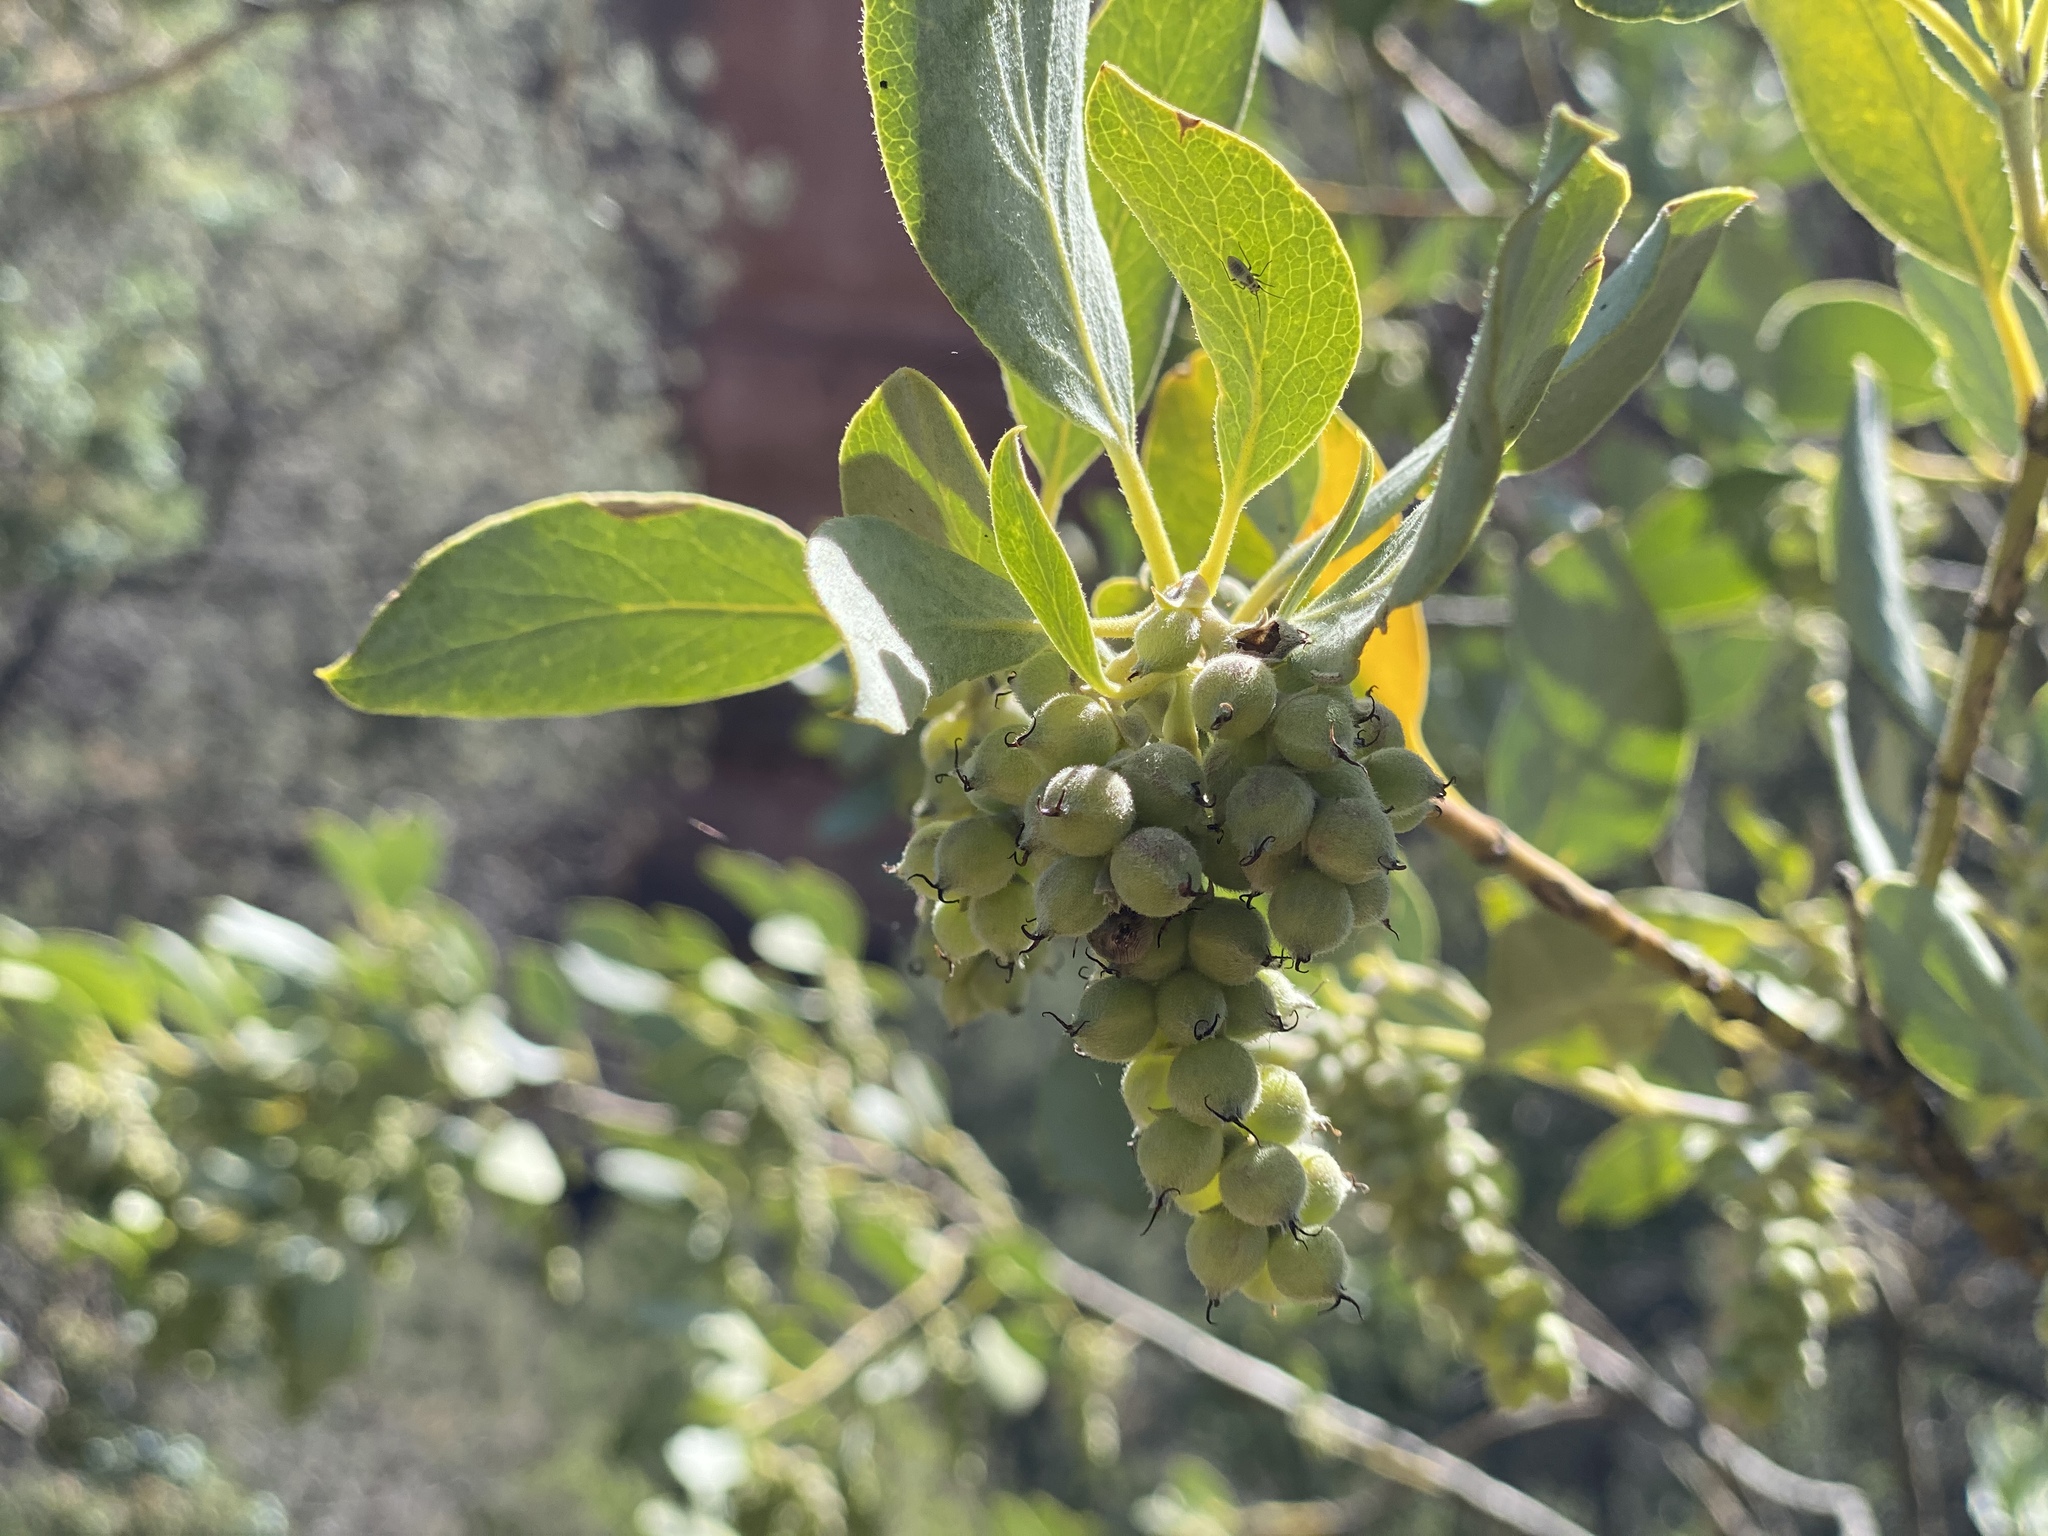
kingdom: Plantae
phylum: Tracheophyta
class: Magnoliopsida
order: Garryales
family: Garryaceae
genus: Garrya
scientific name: Garrya flavescens
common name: Ashy silk-tassel
